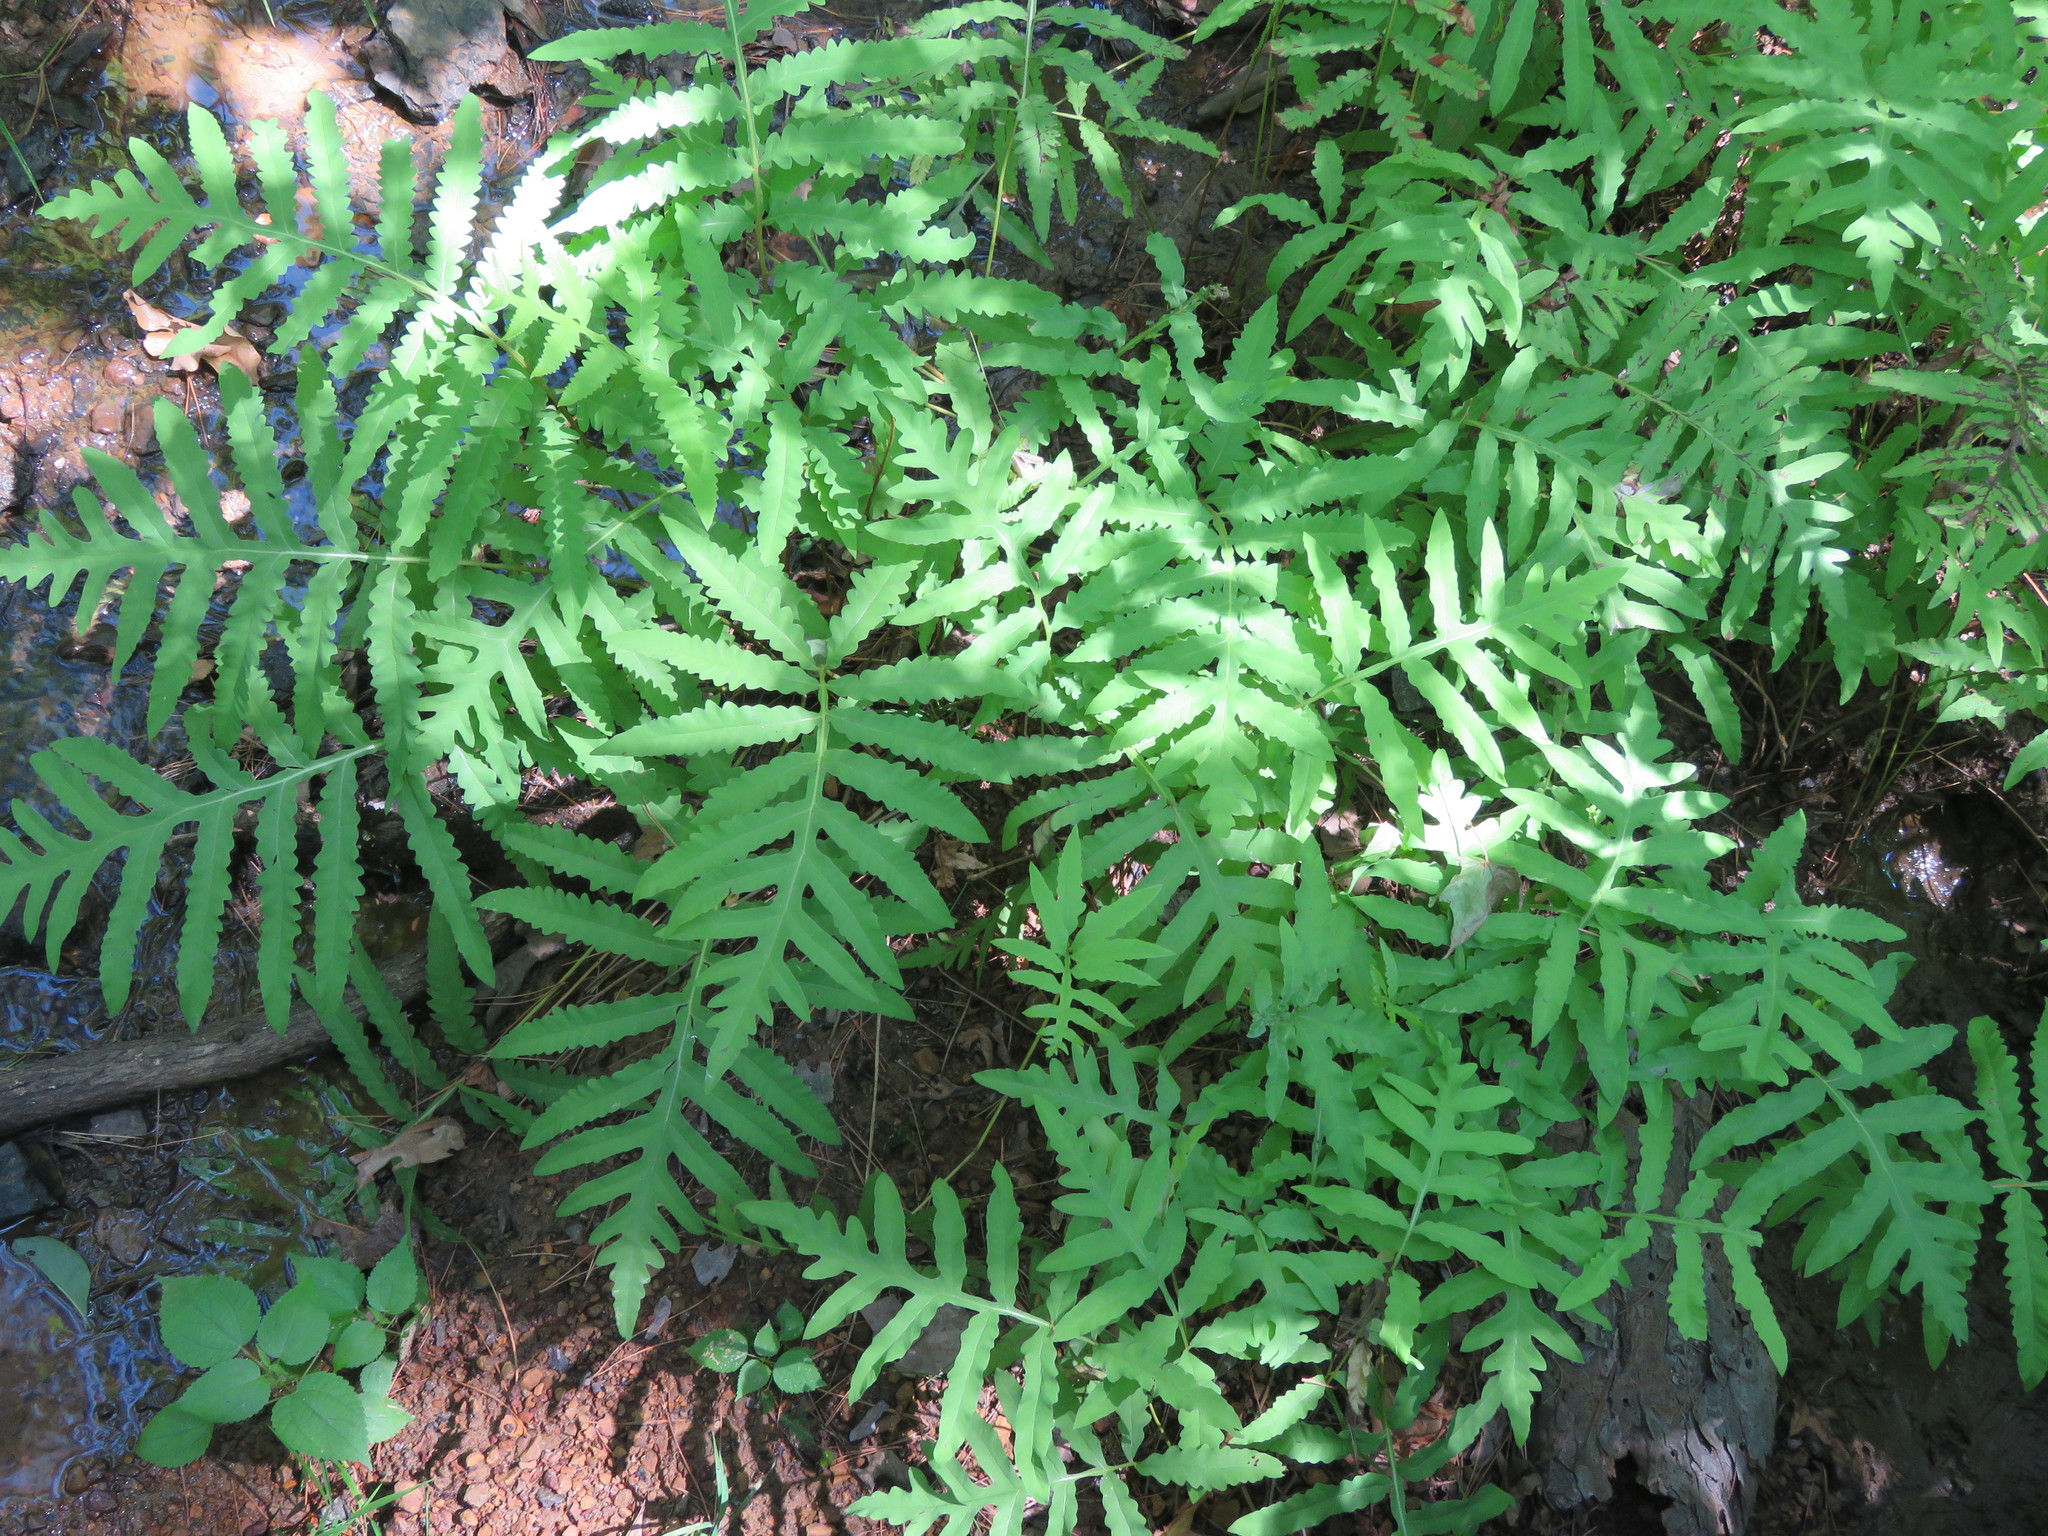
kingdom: Plantae
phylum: Tracheophyta
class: Polypodiopsida
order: Polypodiales
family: Onocleaceae
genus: Onoclea
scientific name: Onoclea sensibilis
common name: Sensitive fern
